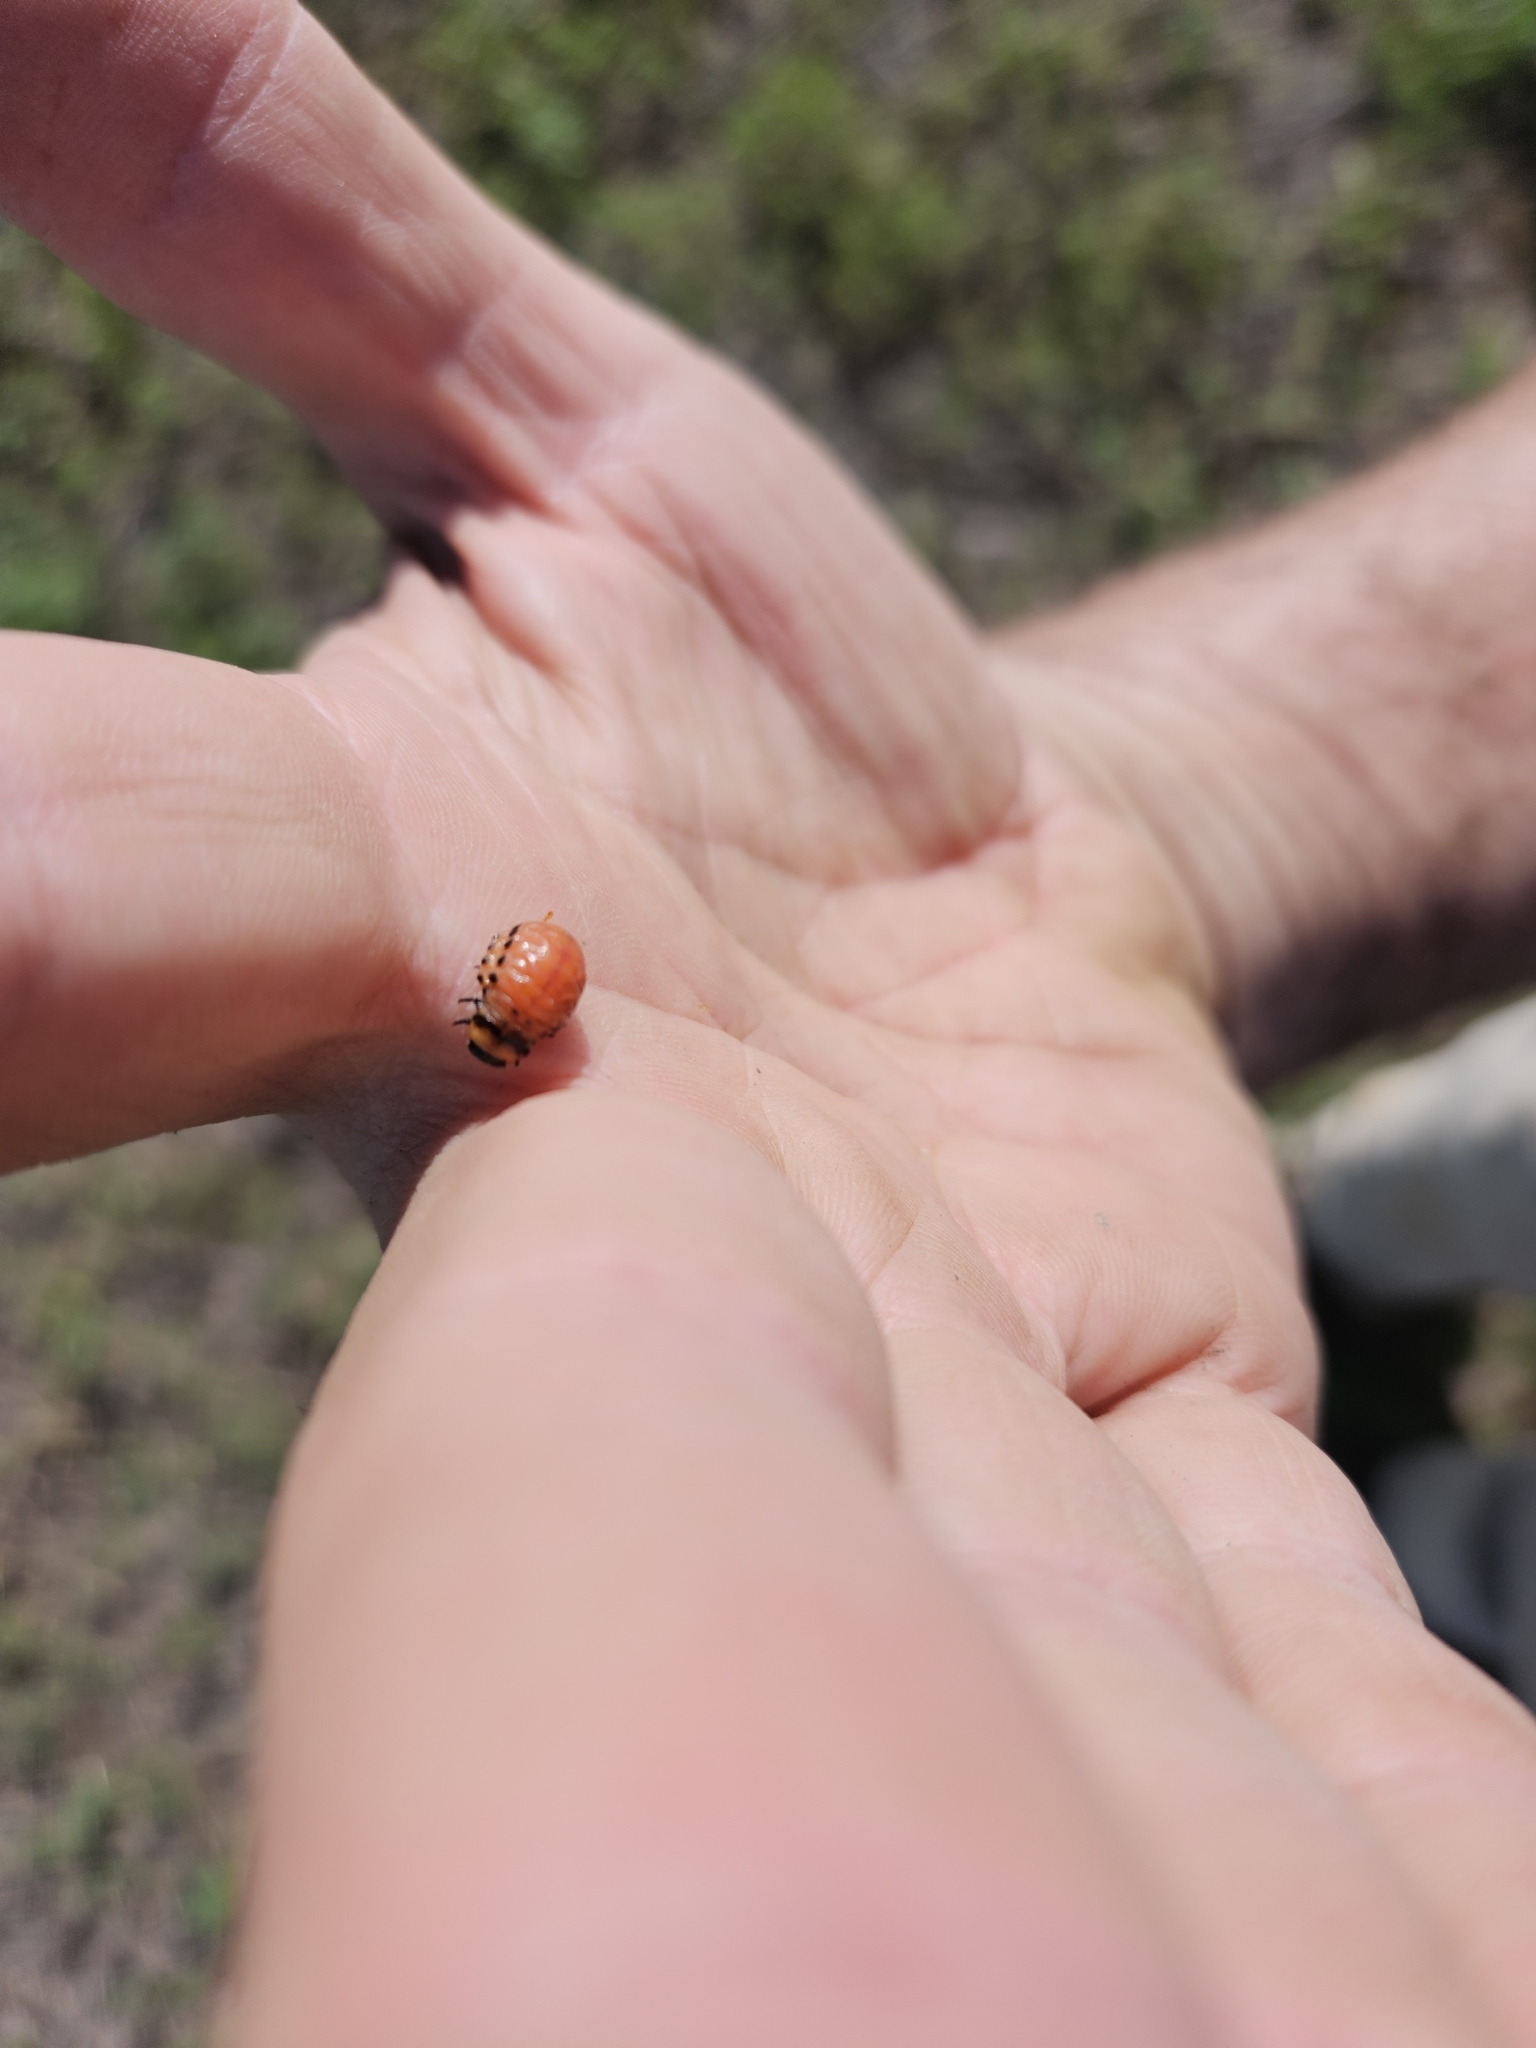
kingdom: Animalia
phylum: Arthropoda
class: Insecta
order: Coleoptera
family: Chrysomelidae
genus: Leptinotarsa
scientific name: Leptinotarsa decemlineata
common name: Colorado potato beetle
